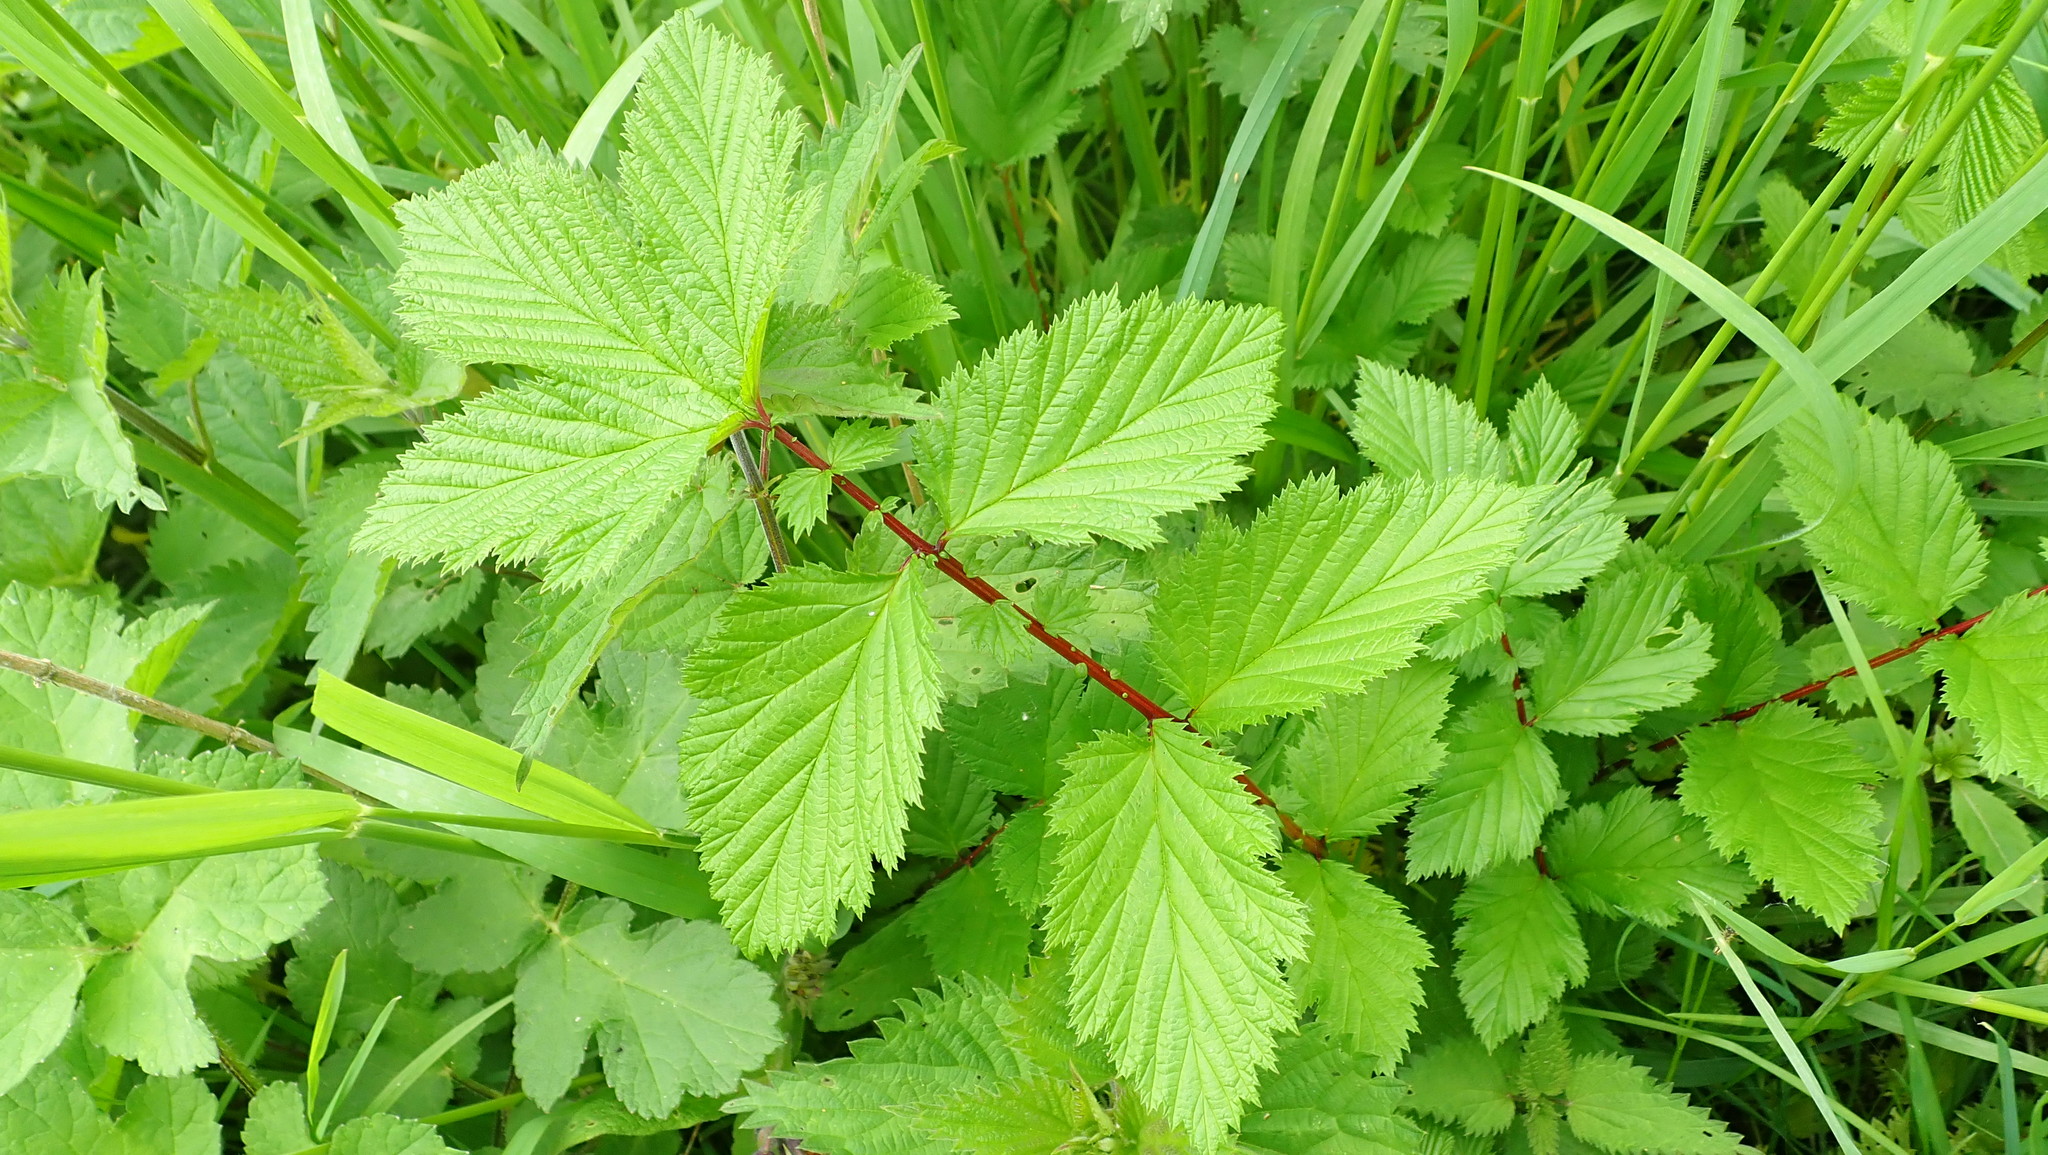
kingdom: Plantae
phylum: Tracheophyta
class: Magnoliopsida
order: Rosales
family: Rosaceae
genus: Filipendula
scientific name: Filipendula ulmaria
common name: Meadowsweet
